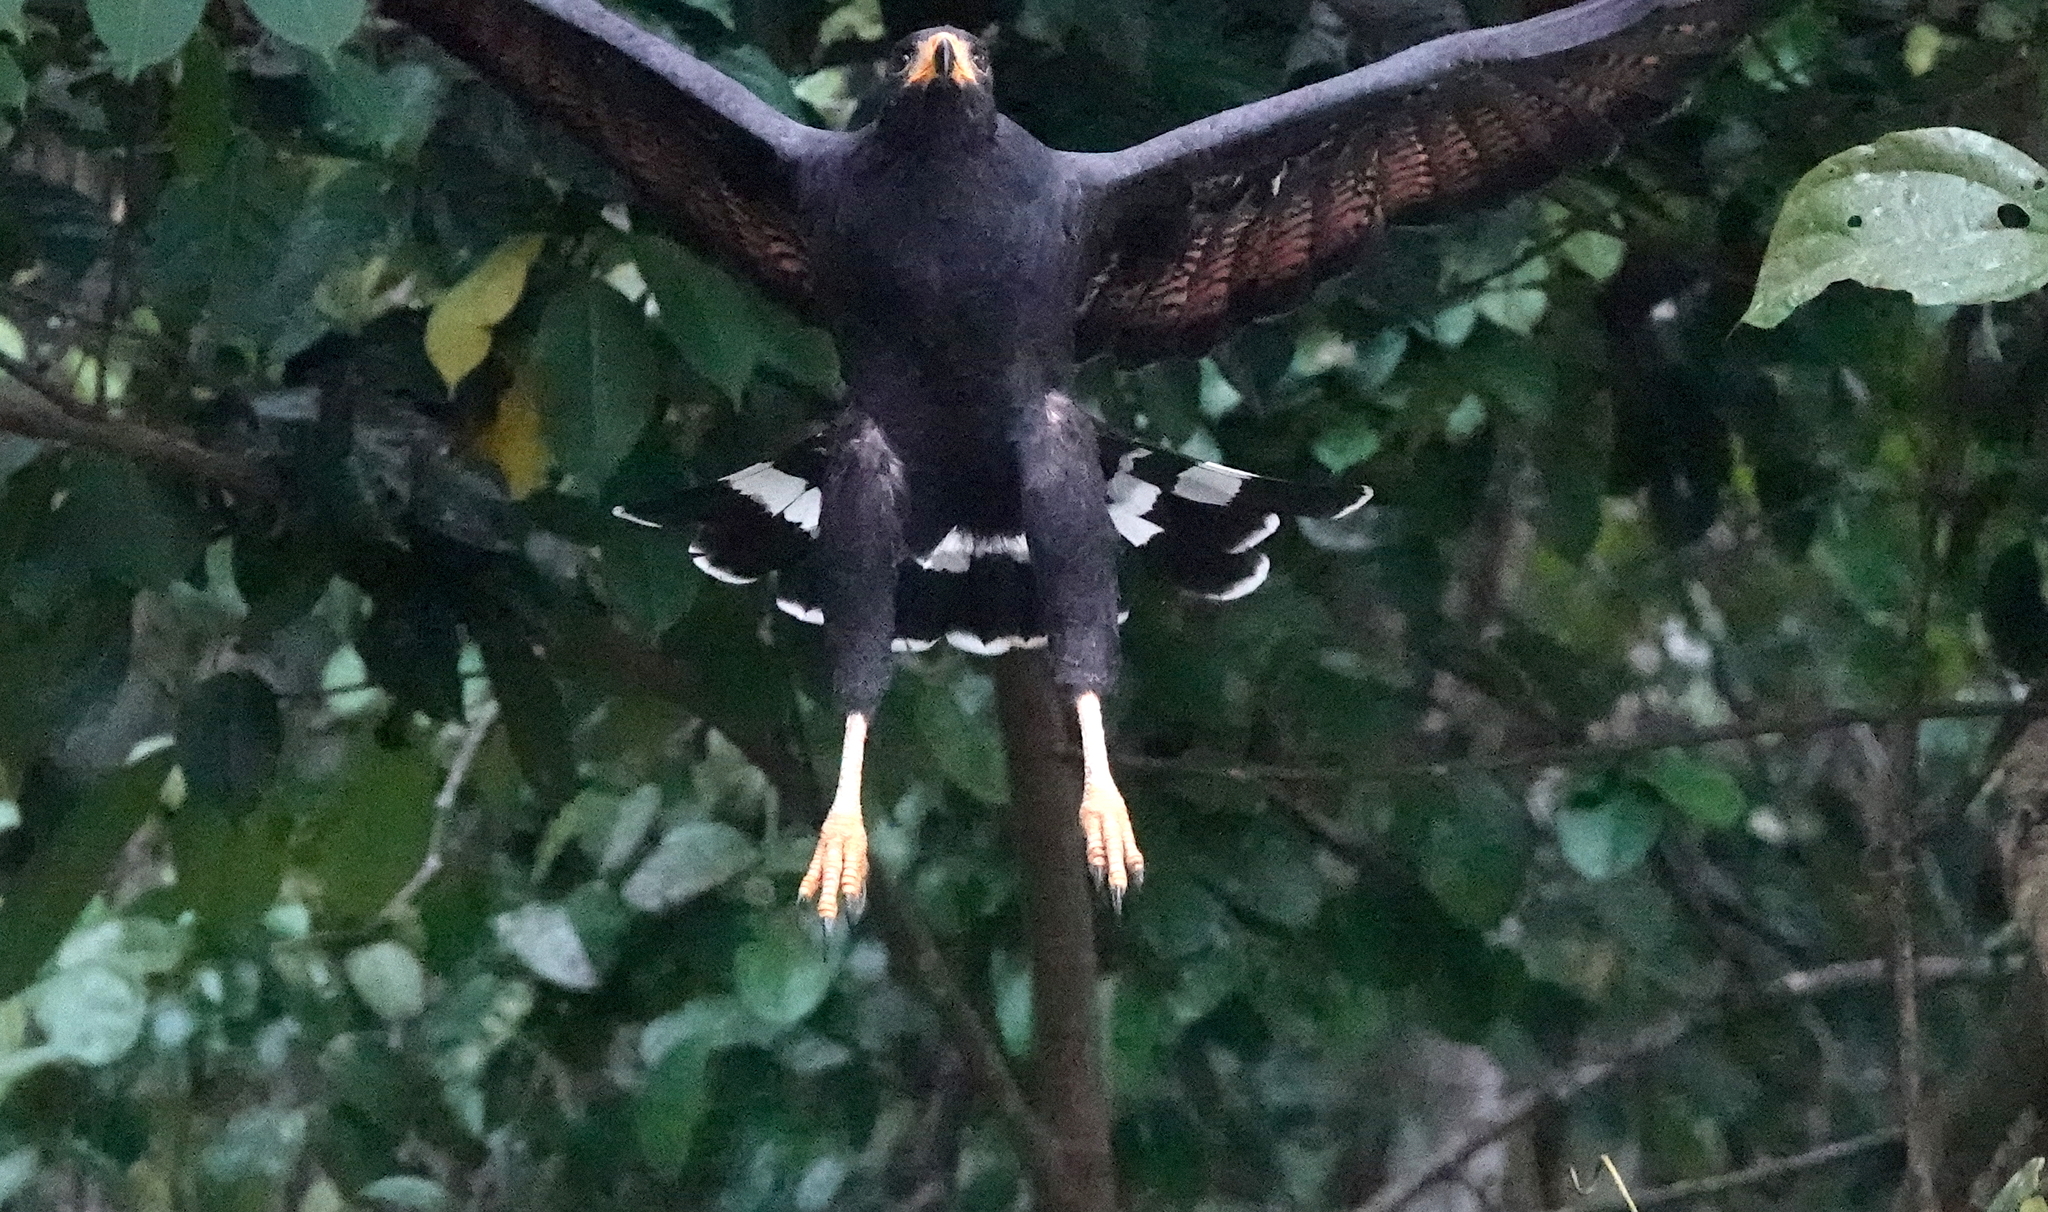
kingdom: Animalia
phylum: Chordata
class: Aves
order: Accipitriformes
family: Accipitridae
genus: Buteogallus
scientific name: Buteogallus anthracinus
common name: Common black hawk
